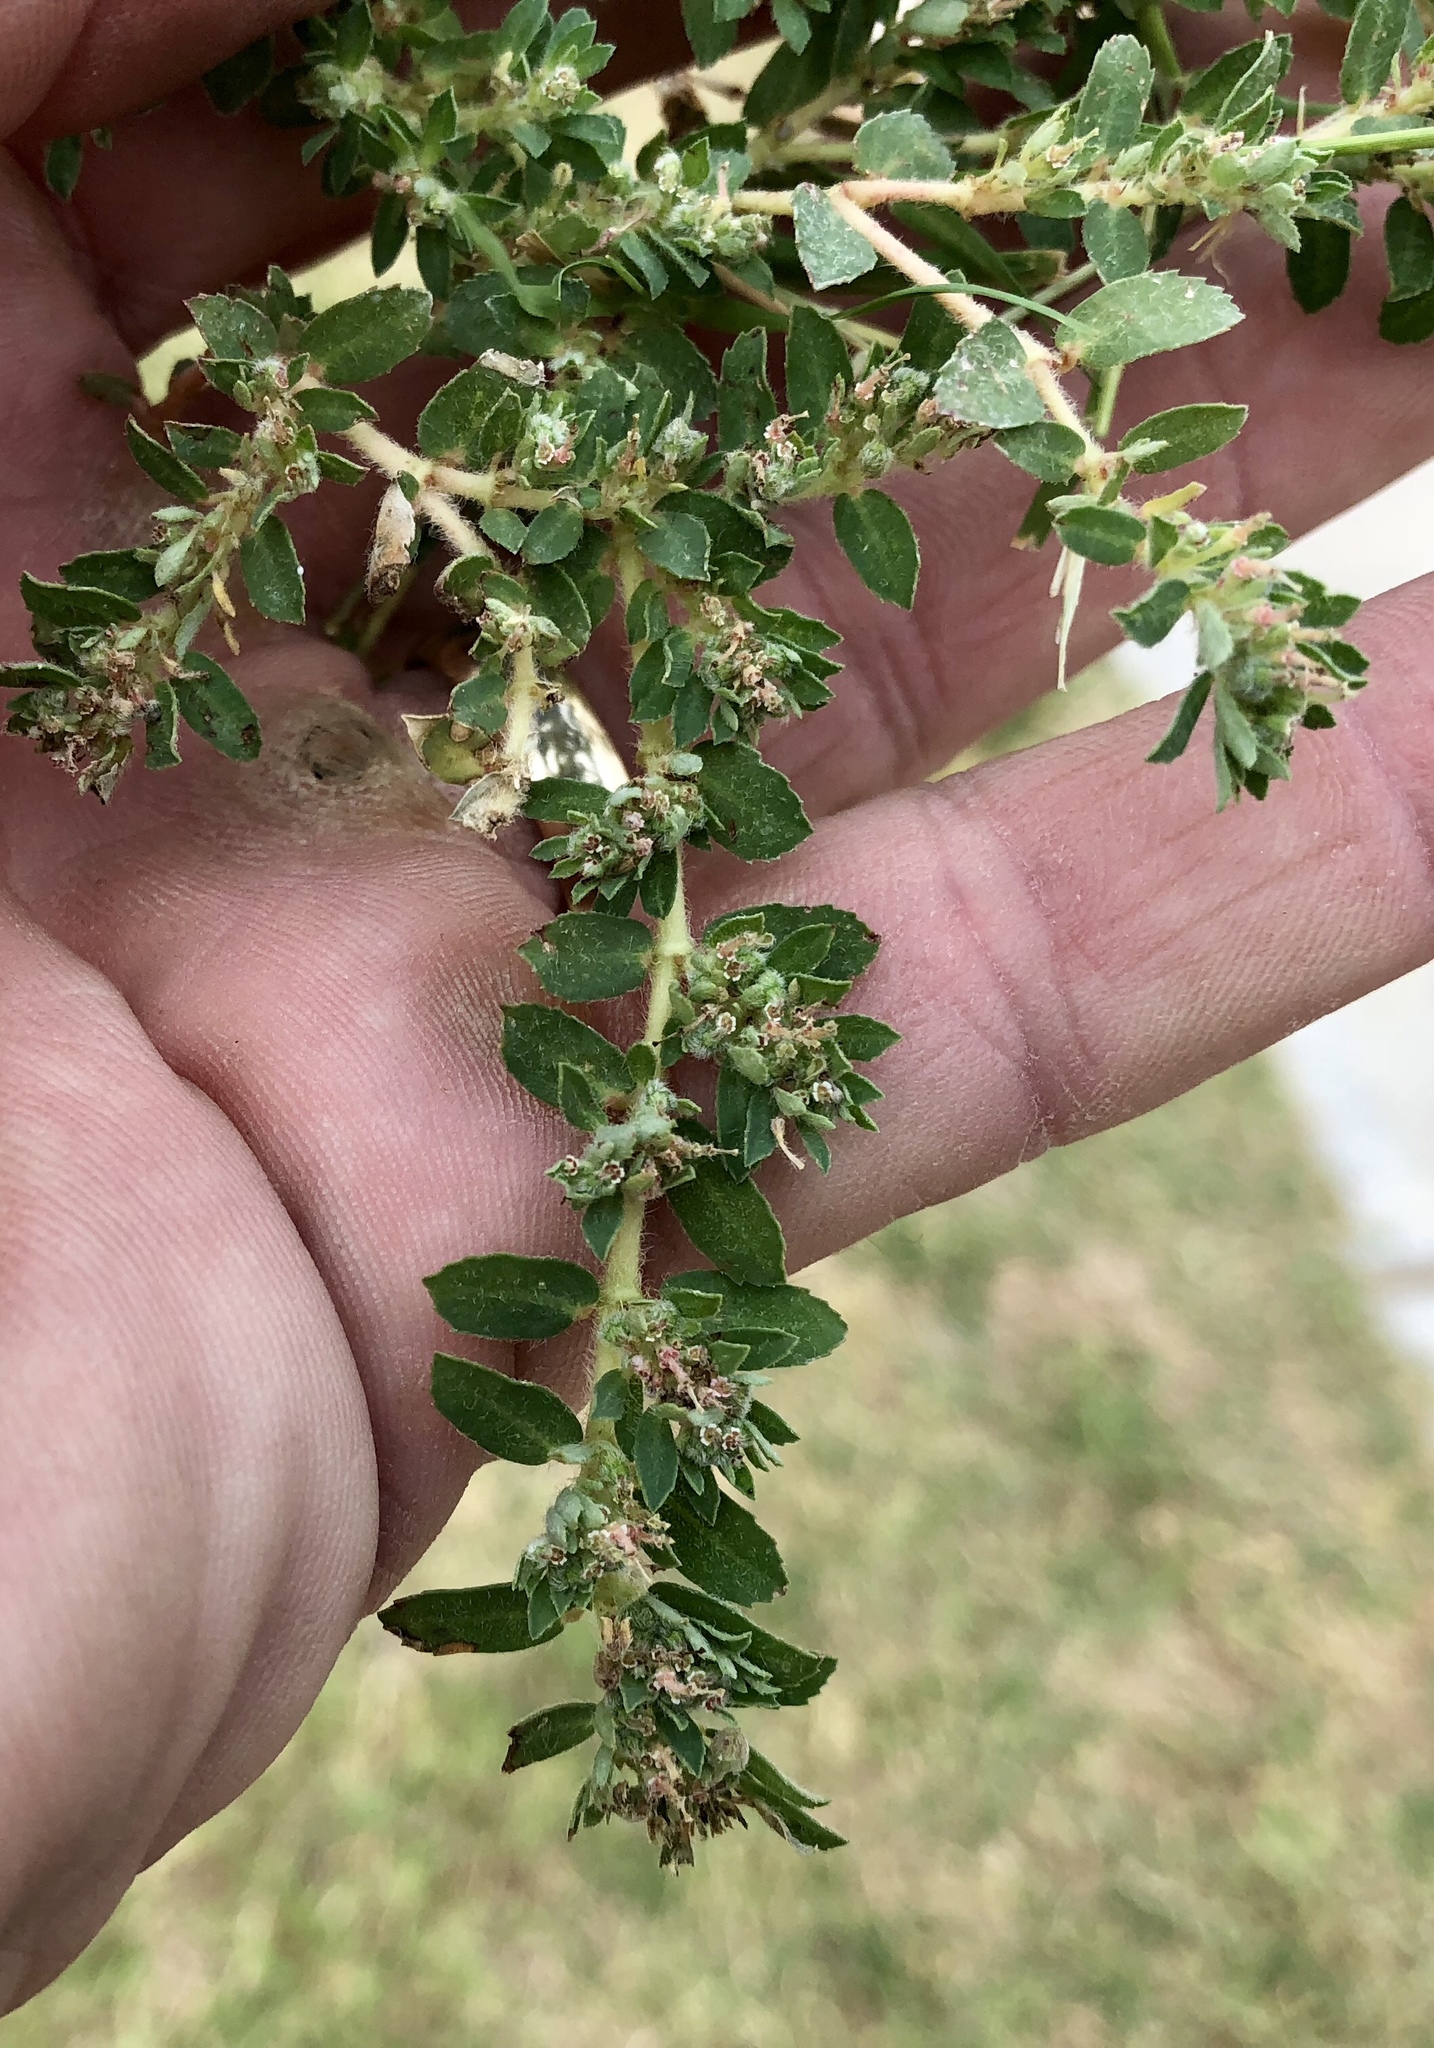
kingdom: Plantae
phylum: Tracheophyta
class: Magnoliopsida
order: Malpighiales
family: Euphorbiaceae
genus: Euphorbia
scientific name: Euphorbia stictospora
